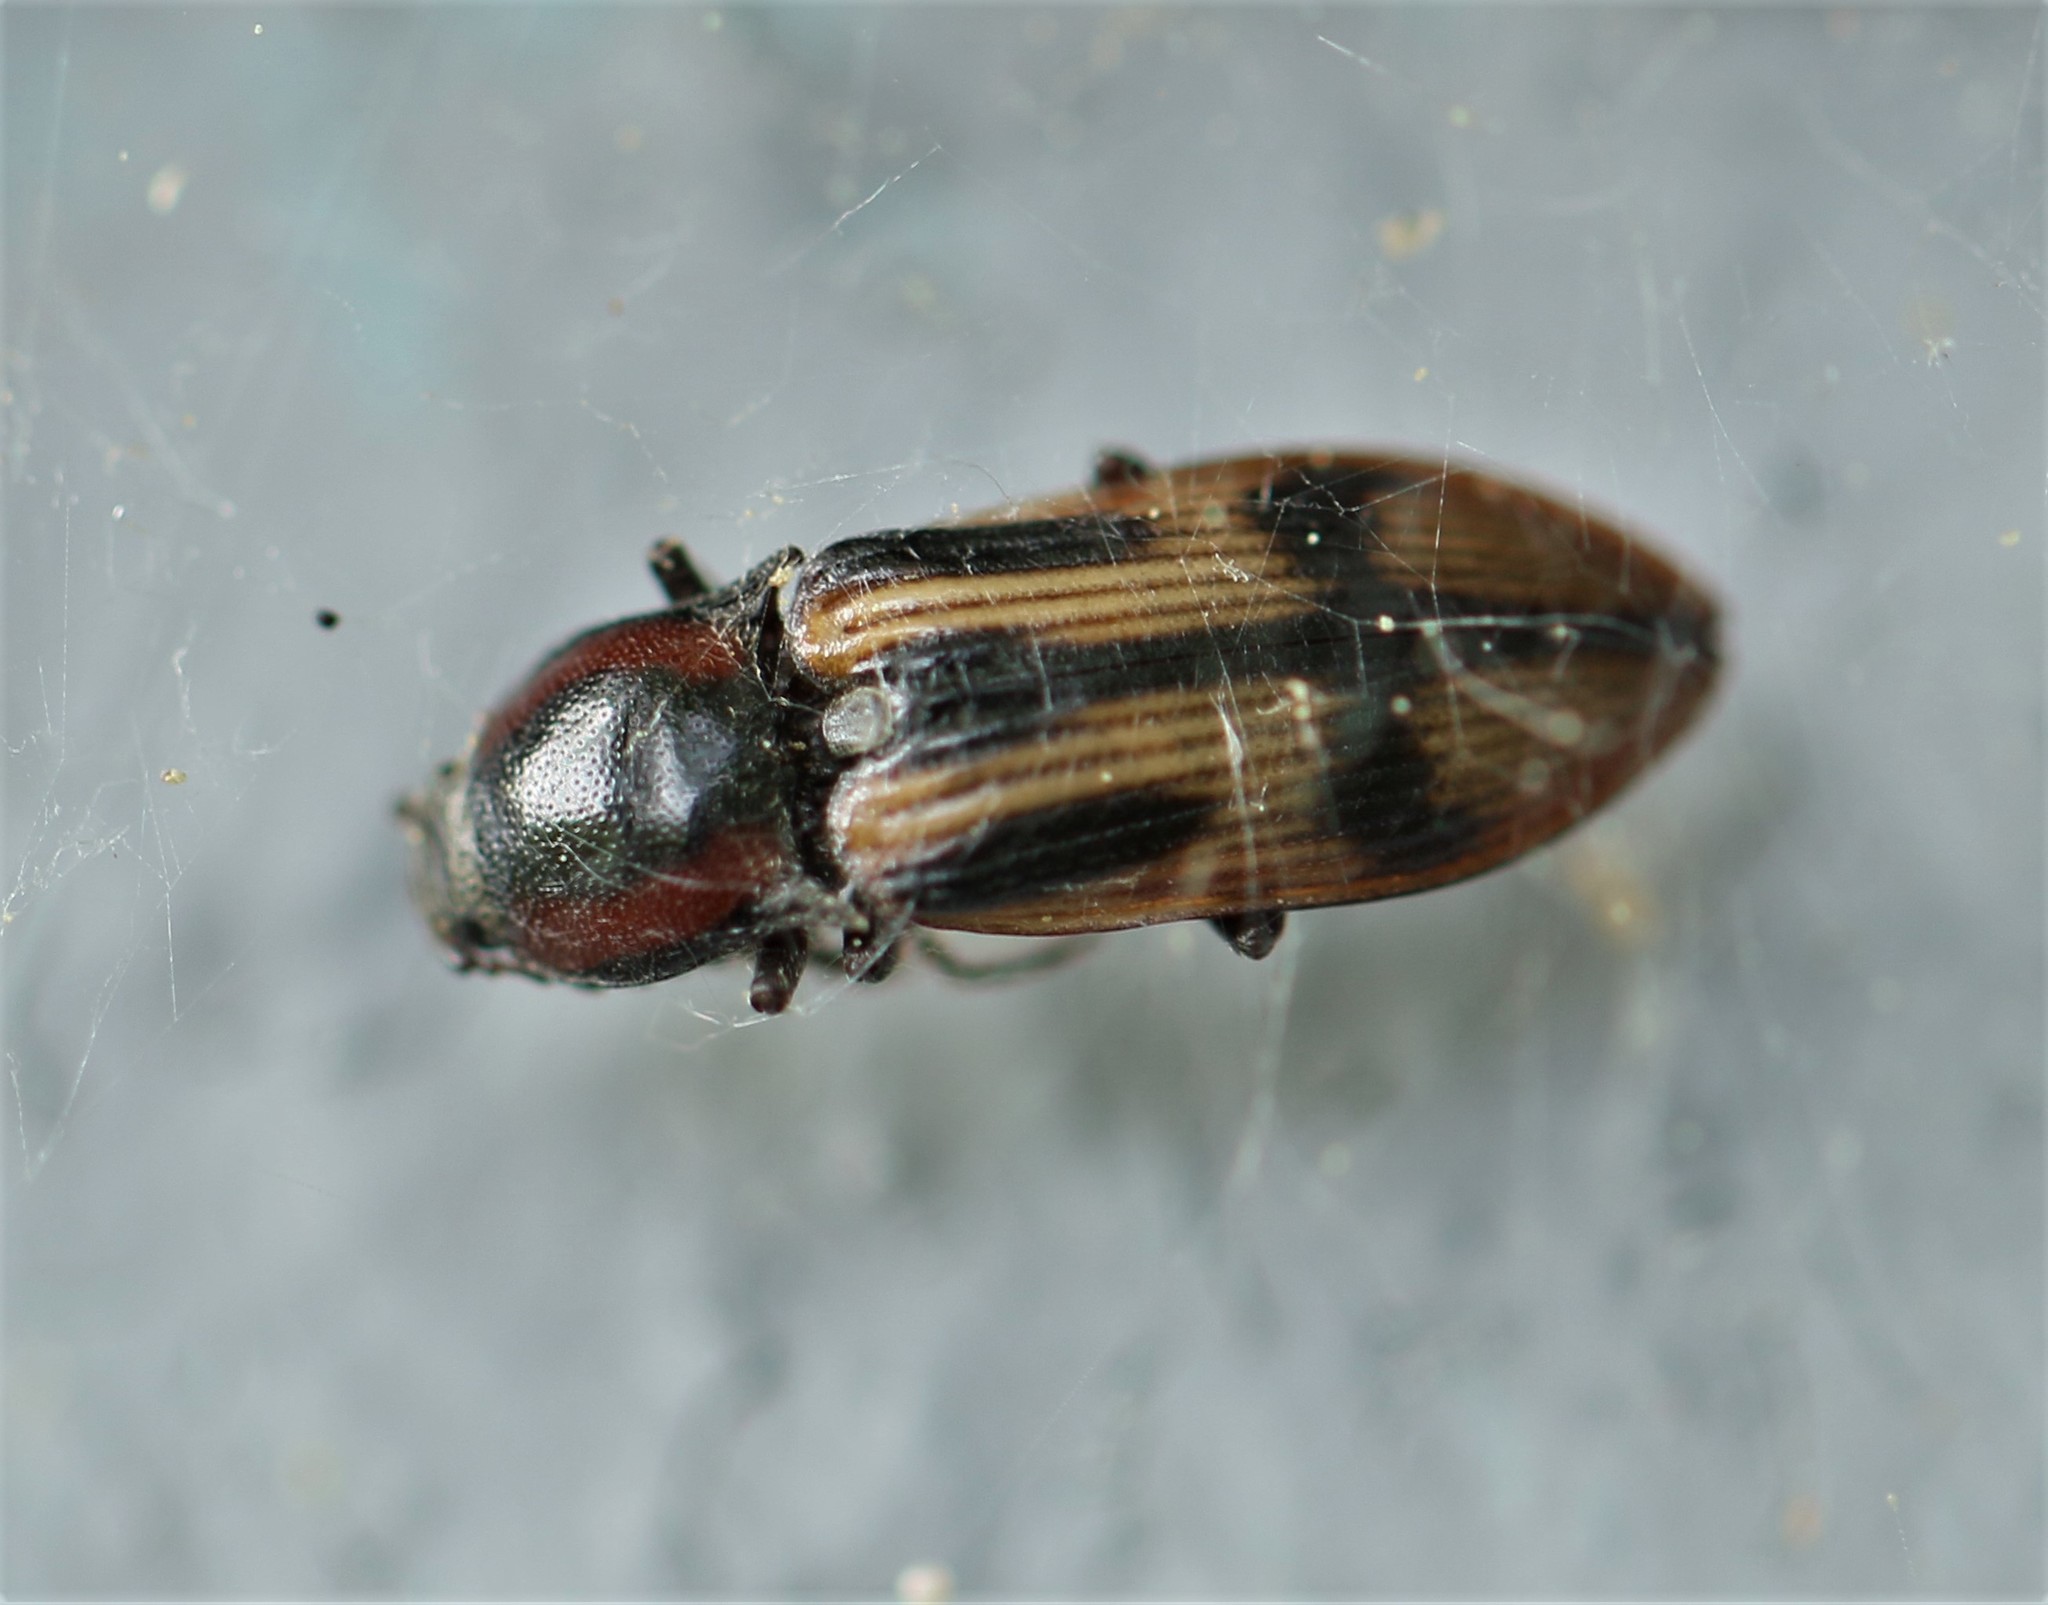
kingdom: Animalia
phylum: Arthropoda
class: Insecta
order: Coleoptera
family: Elateridae
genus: Selatosomus
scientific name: Selatosomus pulcher
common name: Noble click beetle
